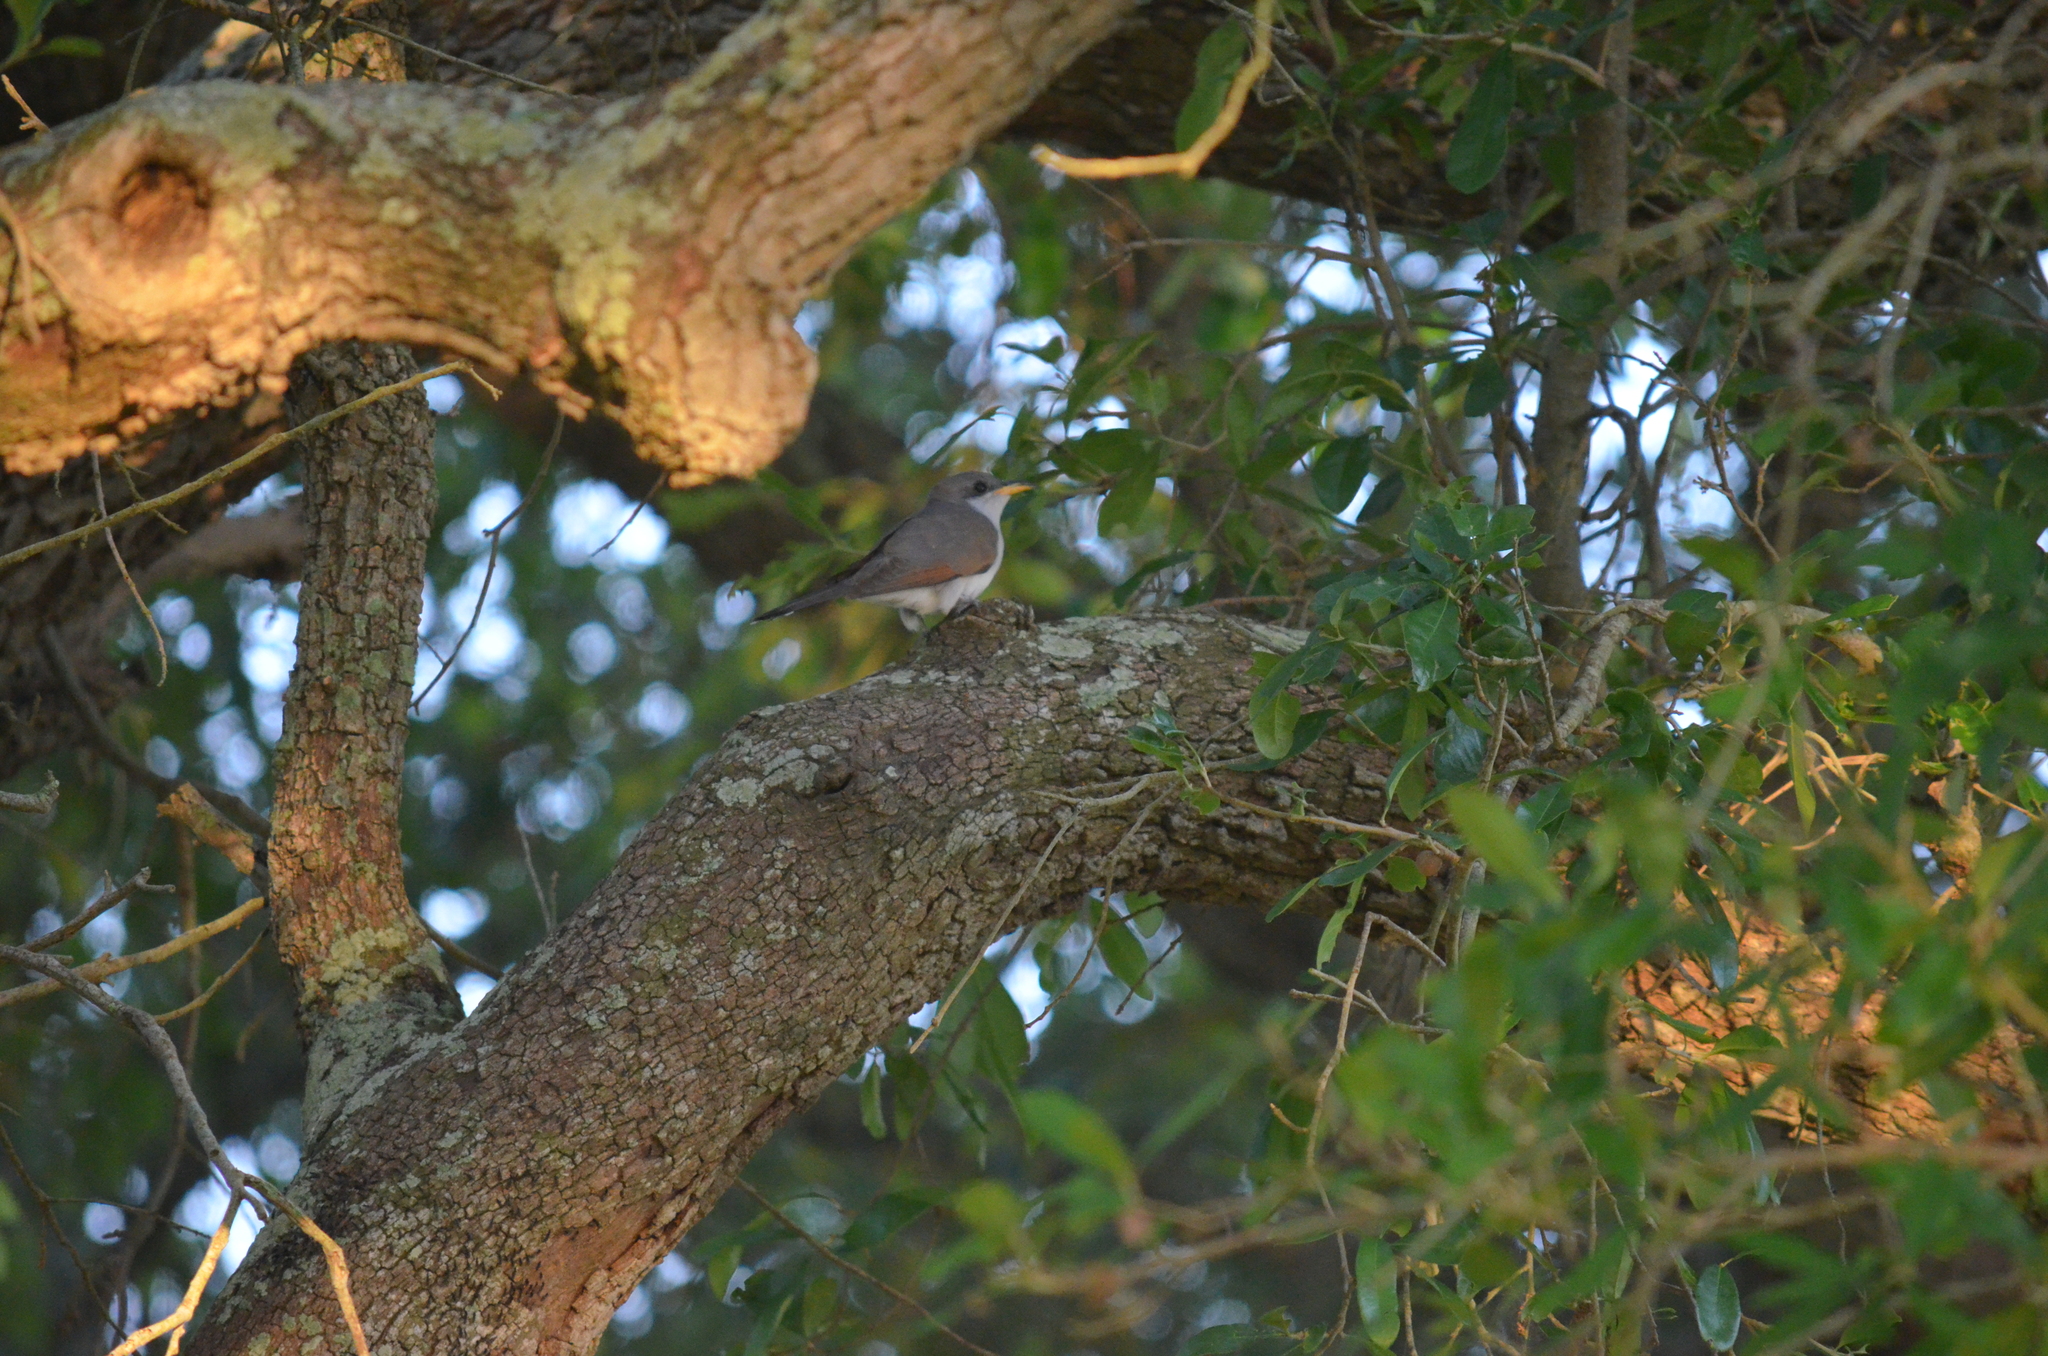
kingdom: Animalia
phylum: Chordata
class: Aves
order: Cuculiformes
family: Cuculidae
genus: Coccyzus
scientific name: Coccyzus americanus
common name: Yellow-billed cuckoo
